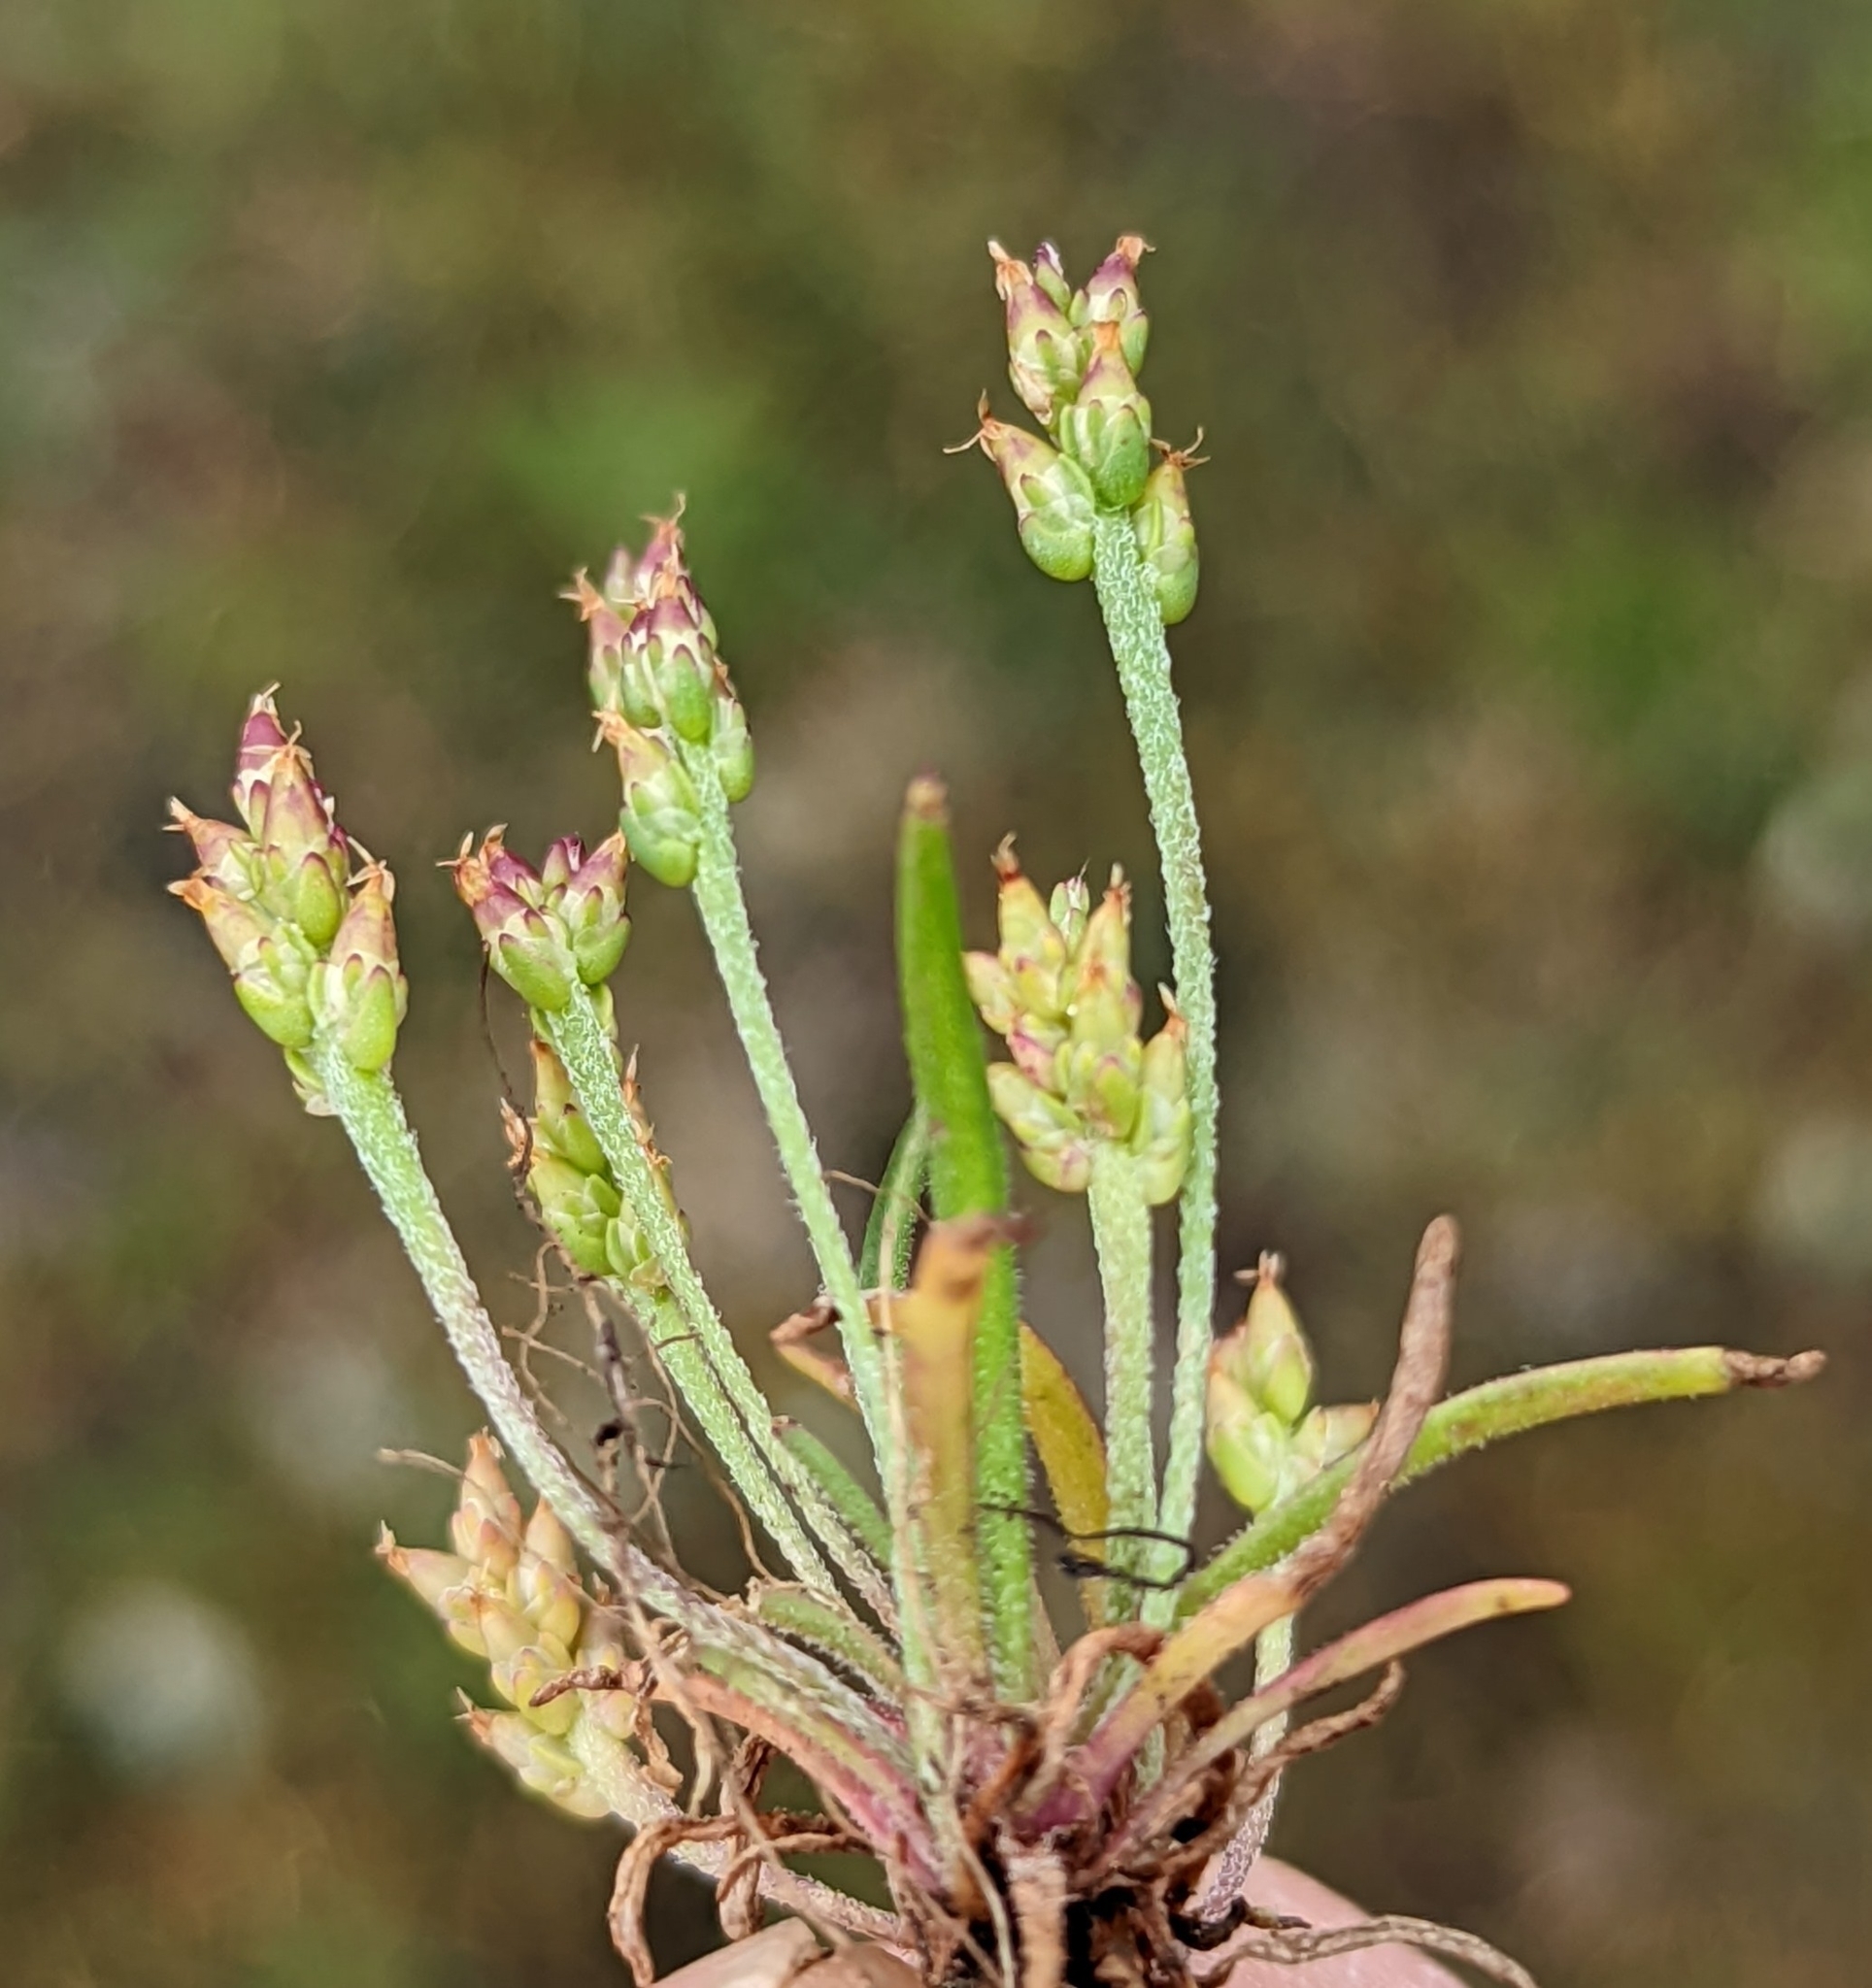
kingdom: Plantae
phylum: Tracheophyta
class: Magnoliopsida
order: Lamiales
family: Plantaginaceae
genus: Plantago
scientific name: Plantago elongata
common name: Linear-leaved plantain
